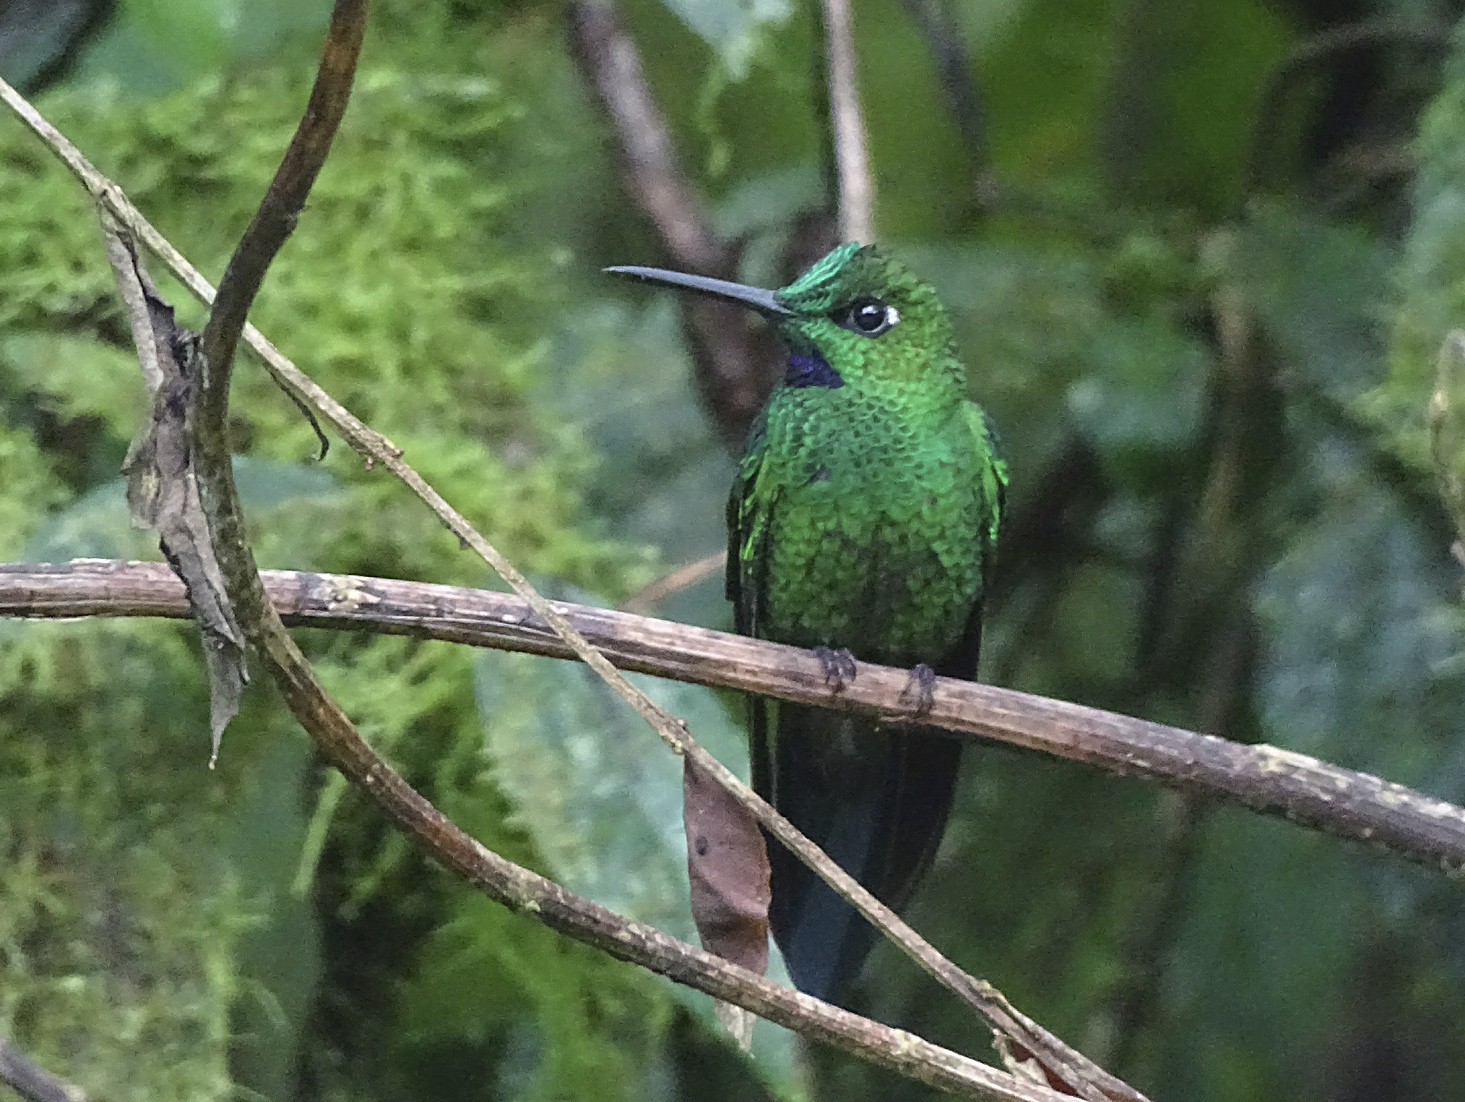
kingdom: Animalia
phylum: Chordata
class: Aves
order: Apodiformes
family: Trochilidae
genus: Heliodoxa
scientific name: Heliodoxa jacula
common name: Green-crowned brilliant
